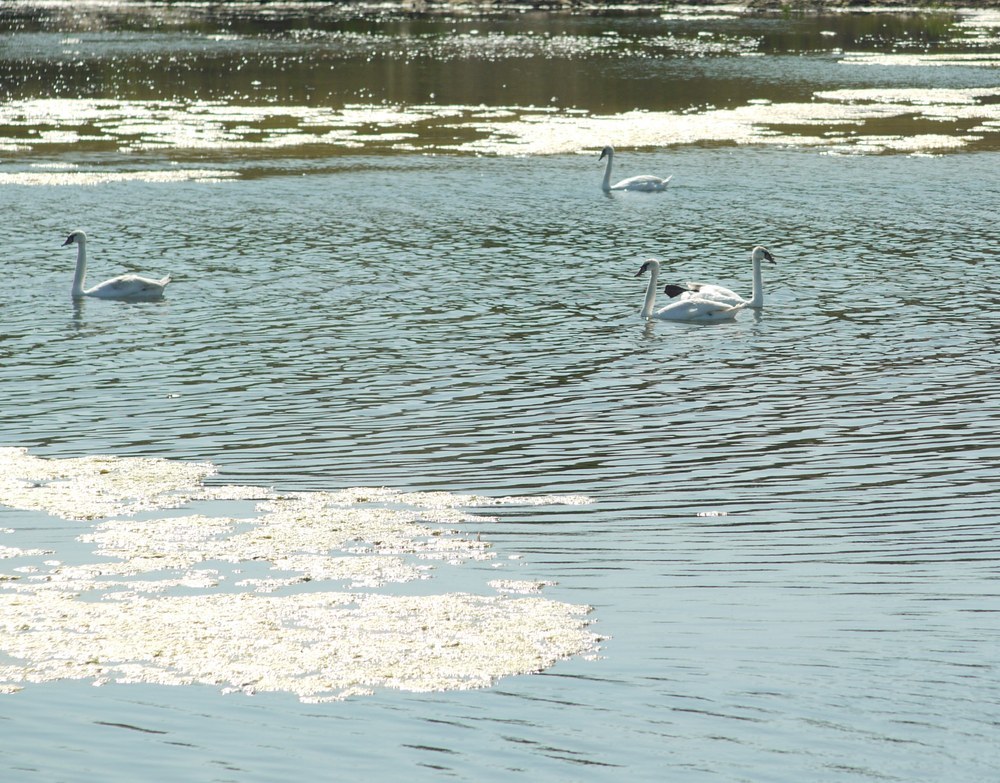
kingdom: Animalia
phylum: Chordata
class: Aves
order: Anseriformes
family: Anatidae
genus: Cygnus
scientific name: Cygnus olor
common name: Mute swan
